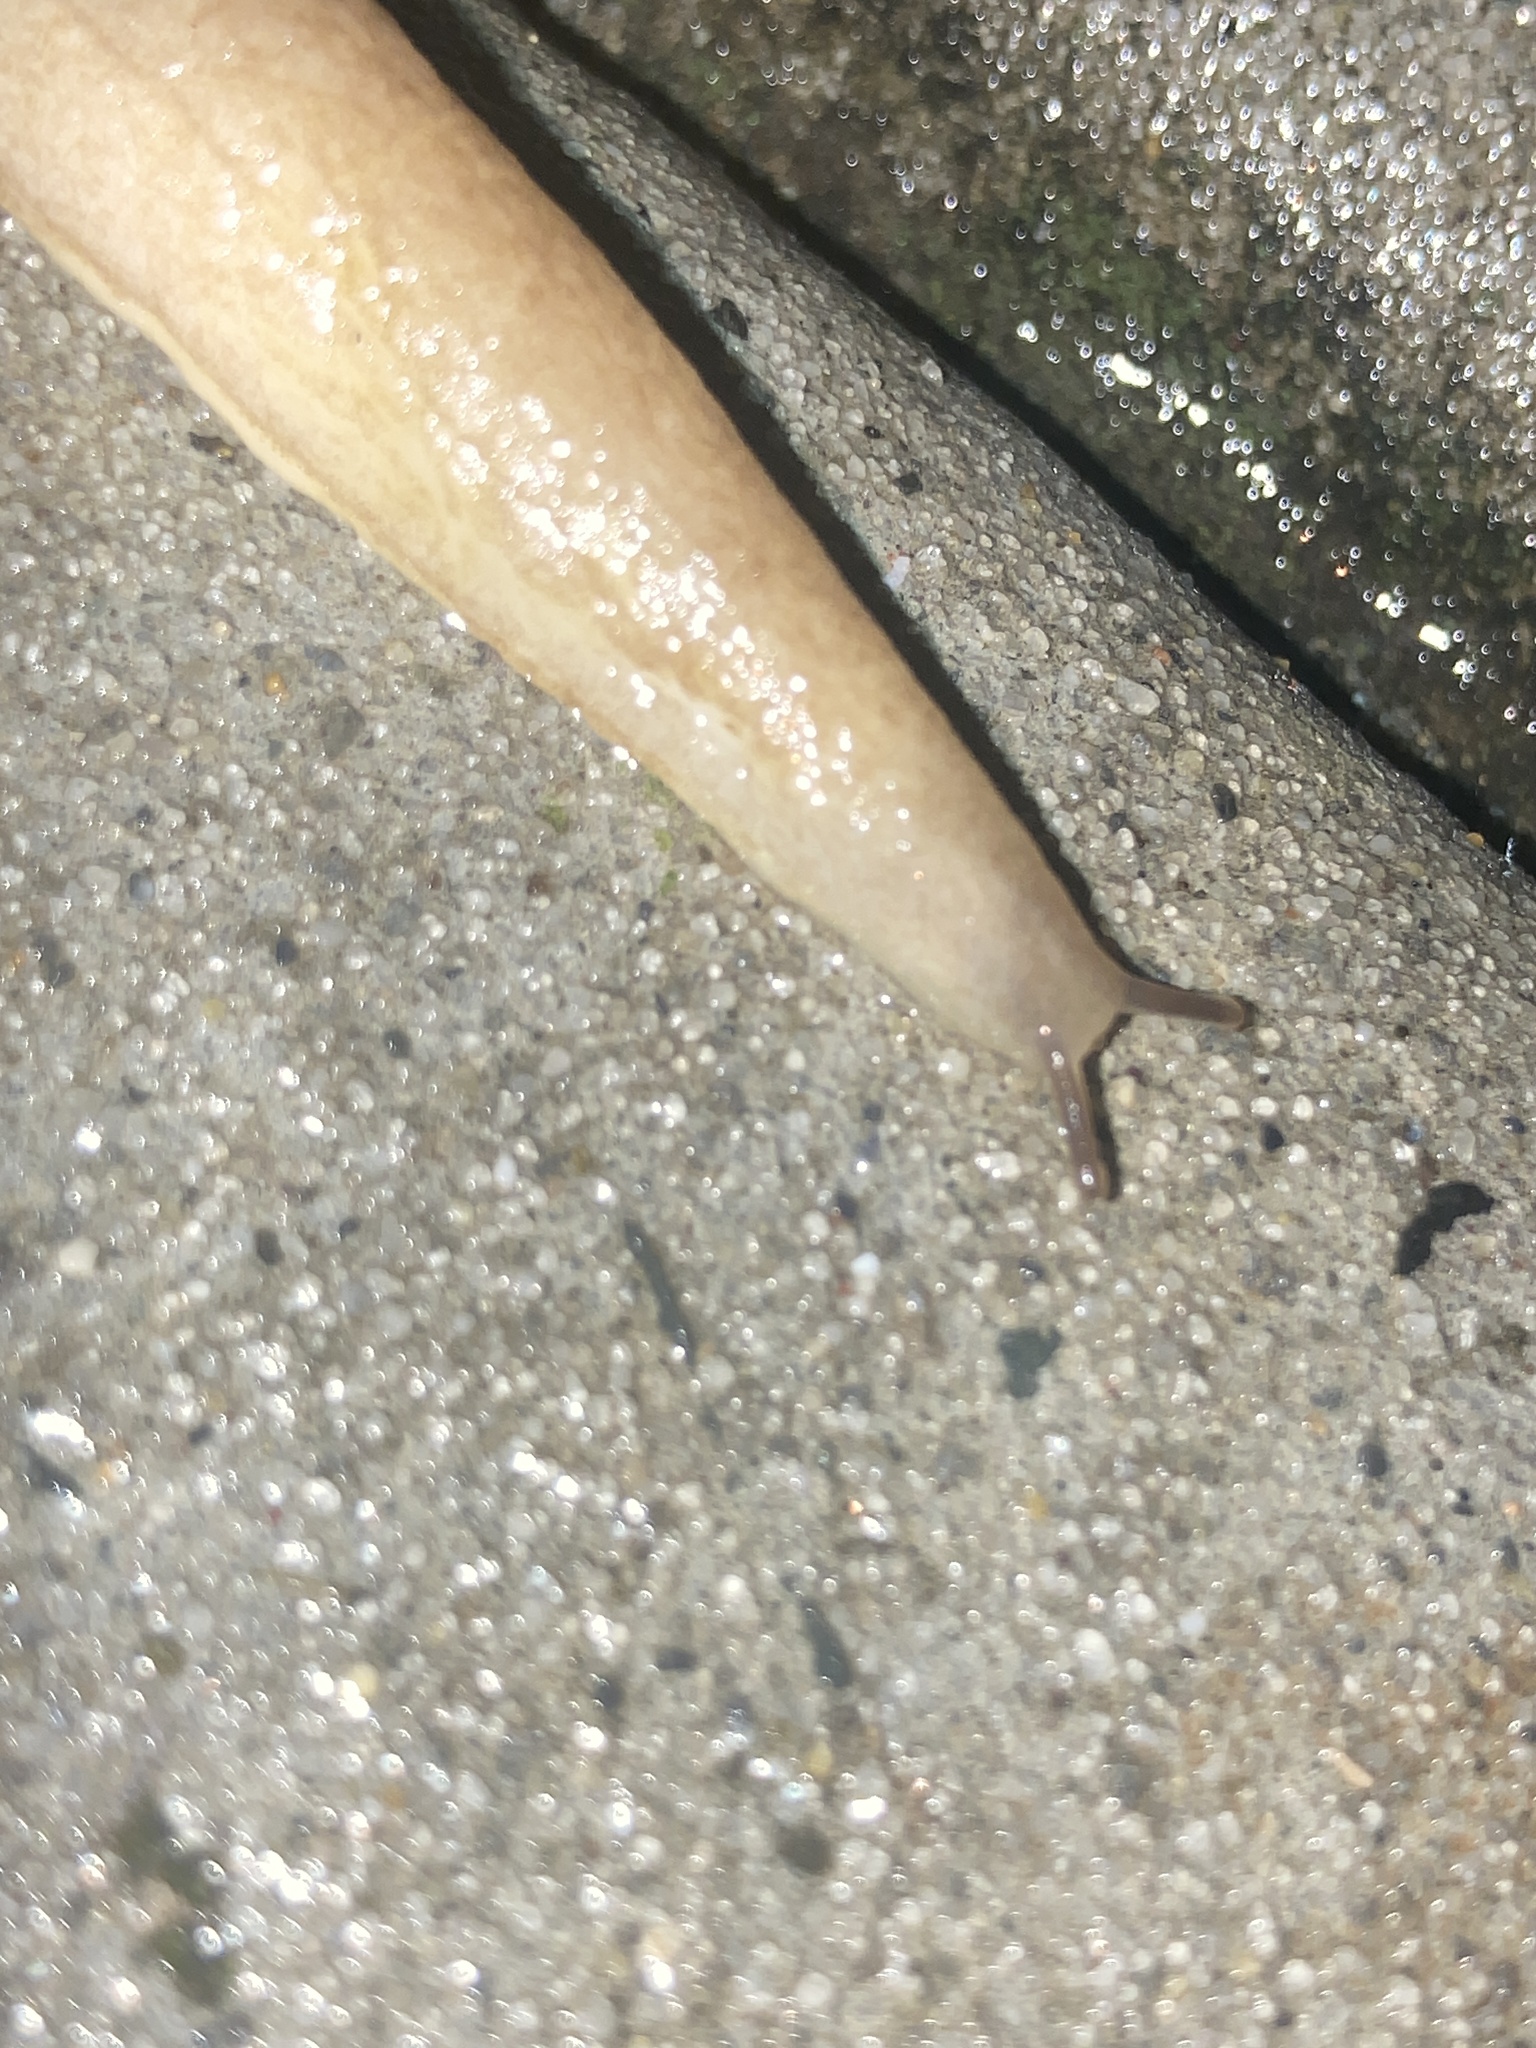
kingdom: Animalia
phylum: Mollusca
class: Gastropoda
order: Stylommatophora
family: Testacellidae
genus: Testacella
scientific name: Testacella haliotidea
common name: Shelled slug
